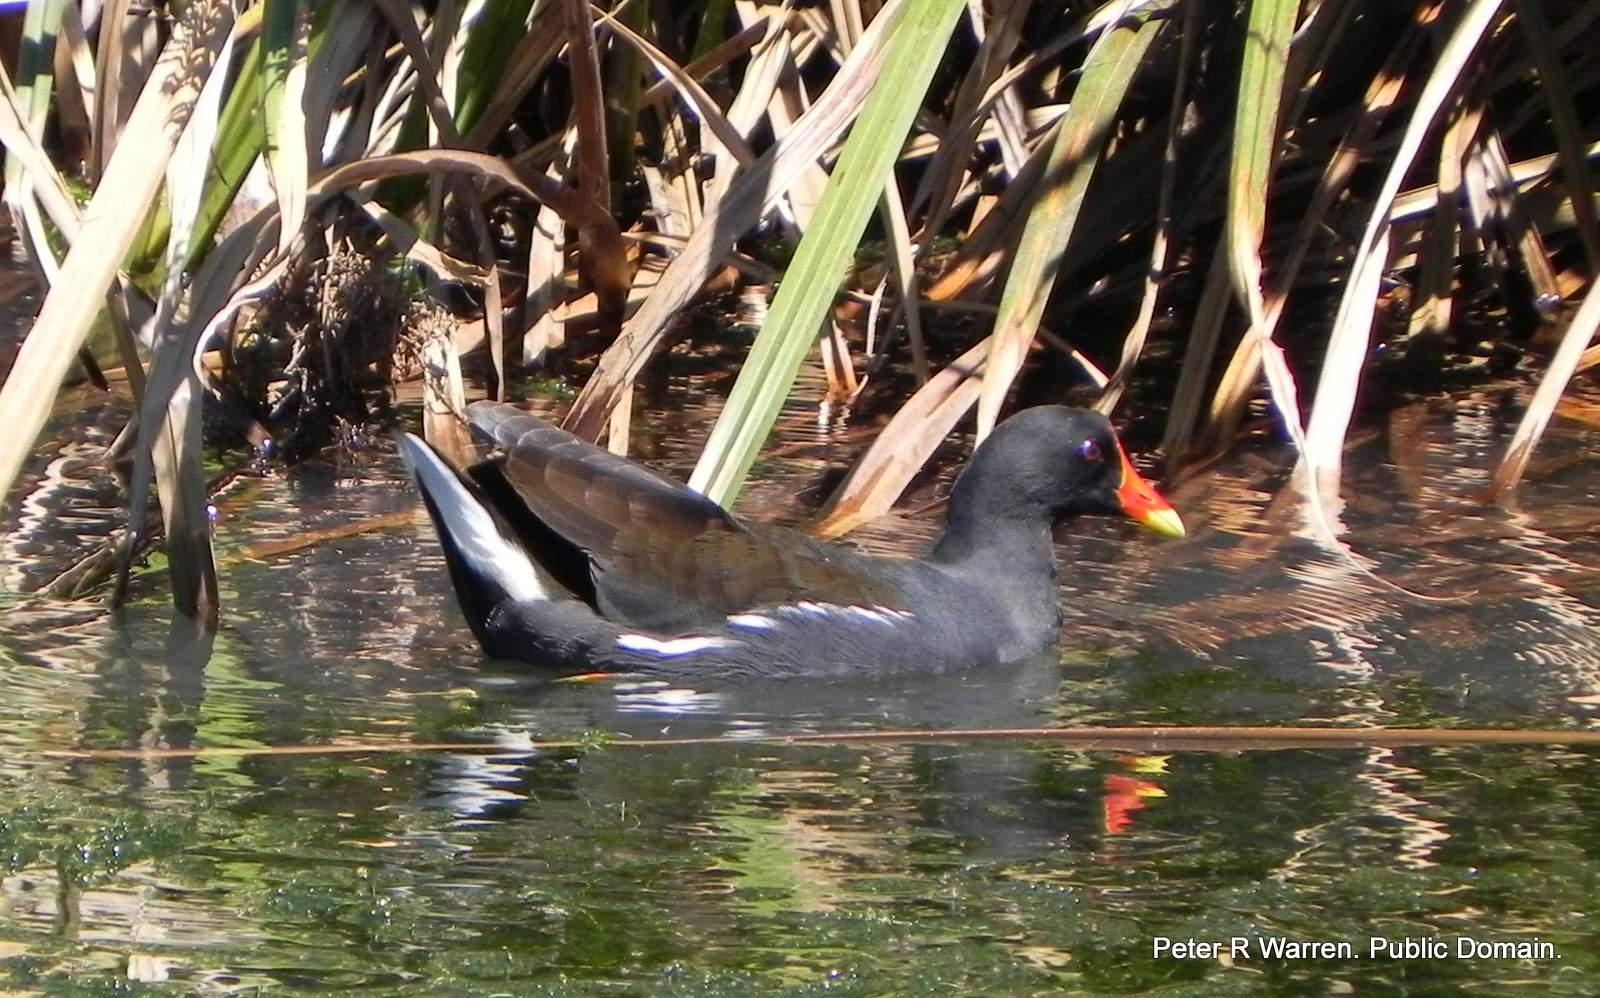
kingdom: Animalia
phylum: Chordata
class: Aves
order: Gruiformes
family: Rallidae
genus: Gallinula
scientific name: Gallinula chloropus
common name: Common moorhen
